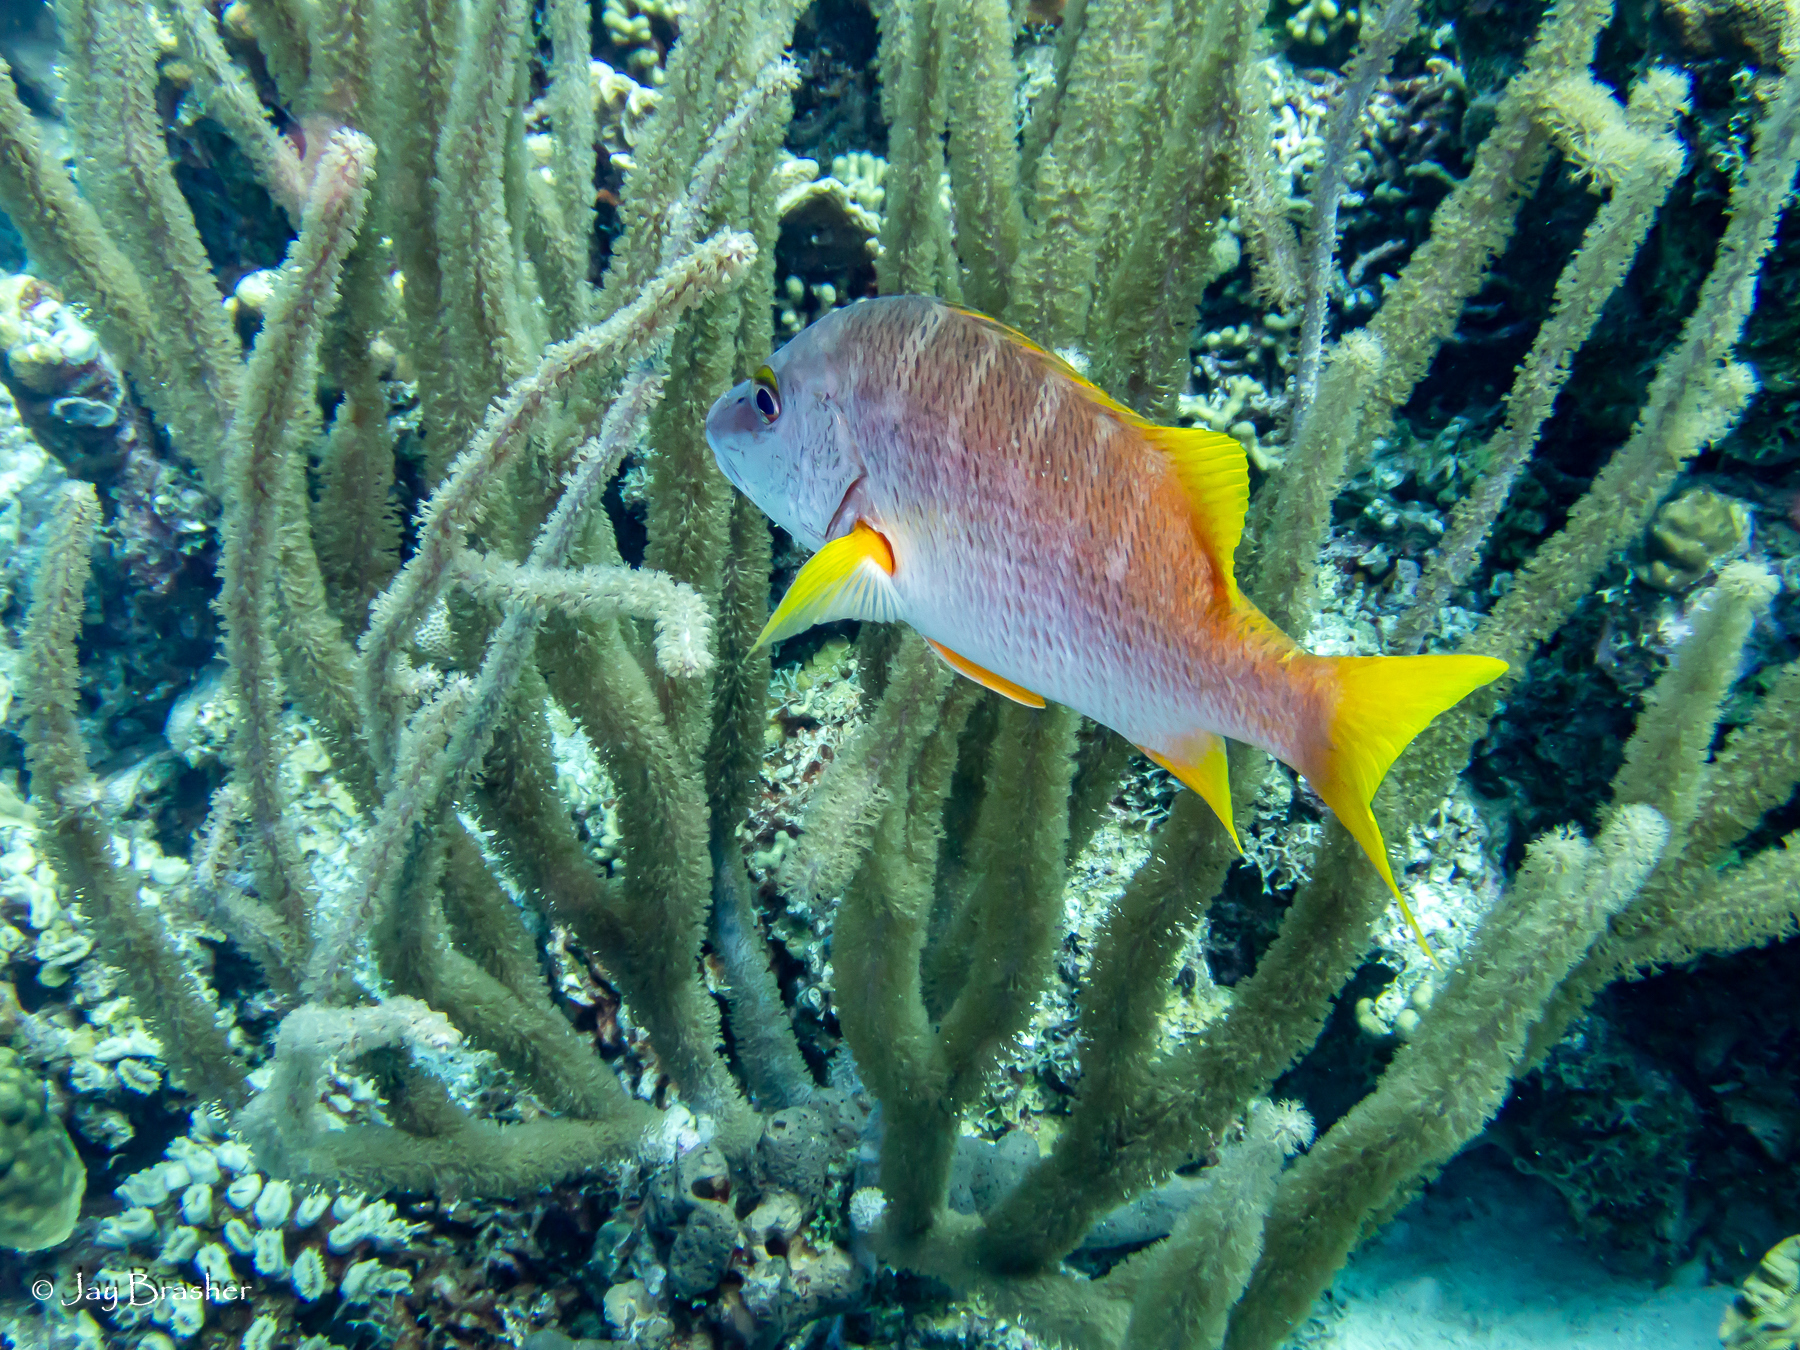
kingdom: Animalia
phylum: Chordata
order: Perciformes
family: Lutjanidae
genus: Lutjanus
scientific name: Lutjanus apodus
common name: Schoolmaster
